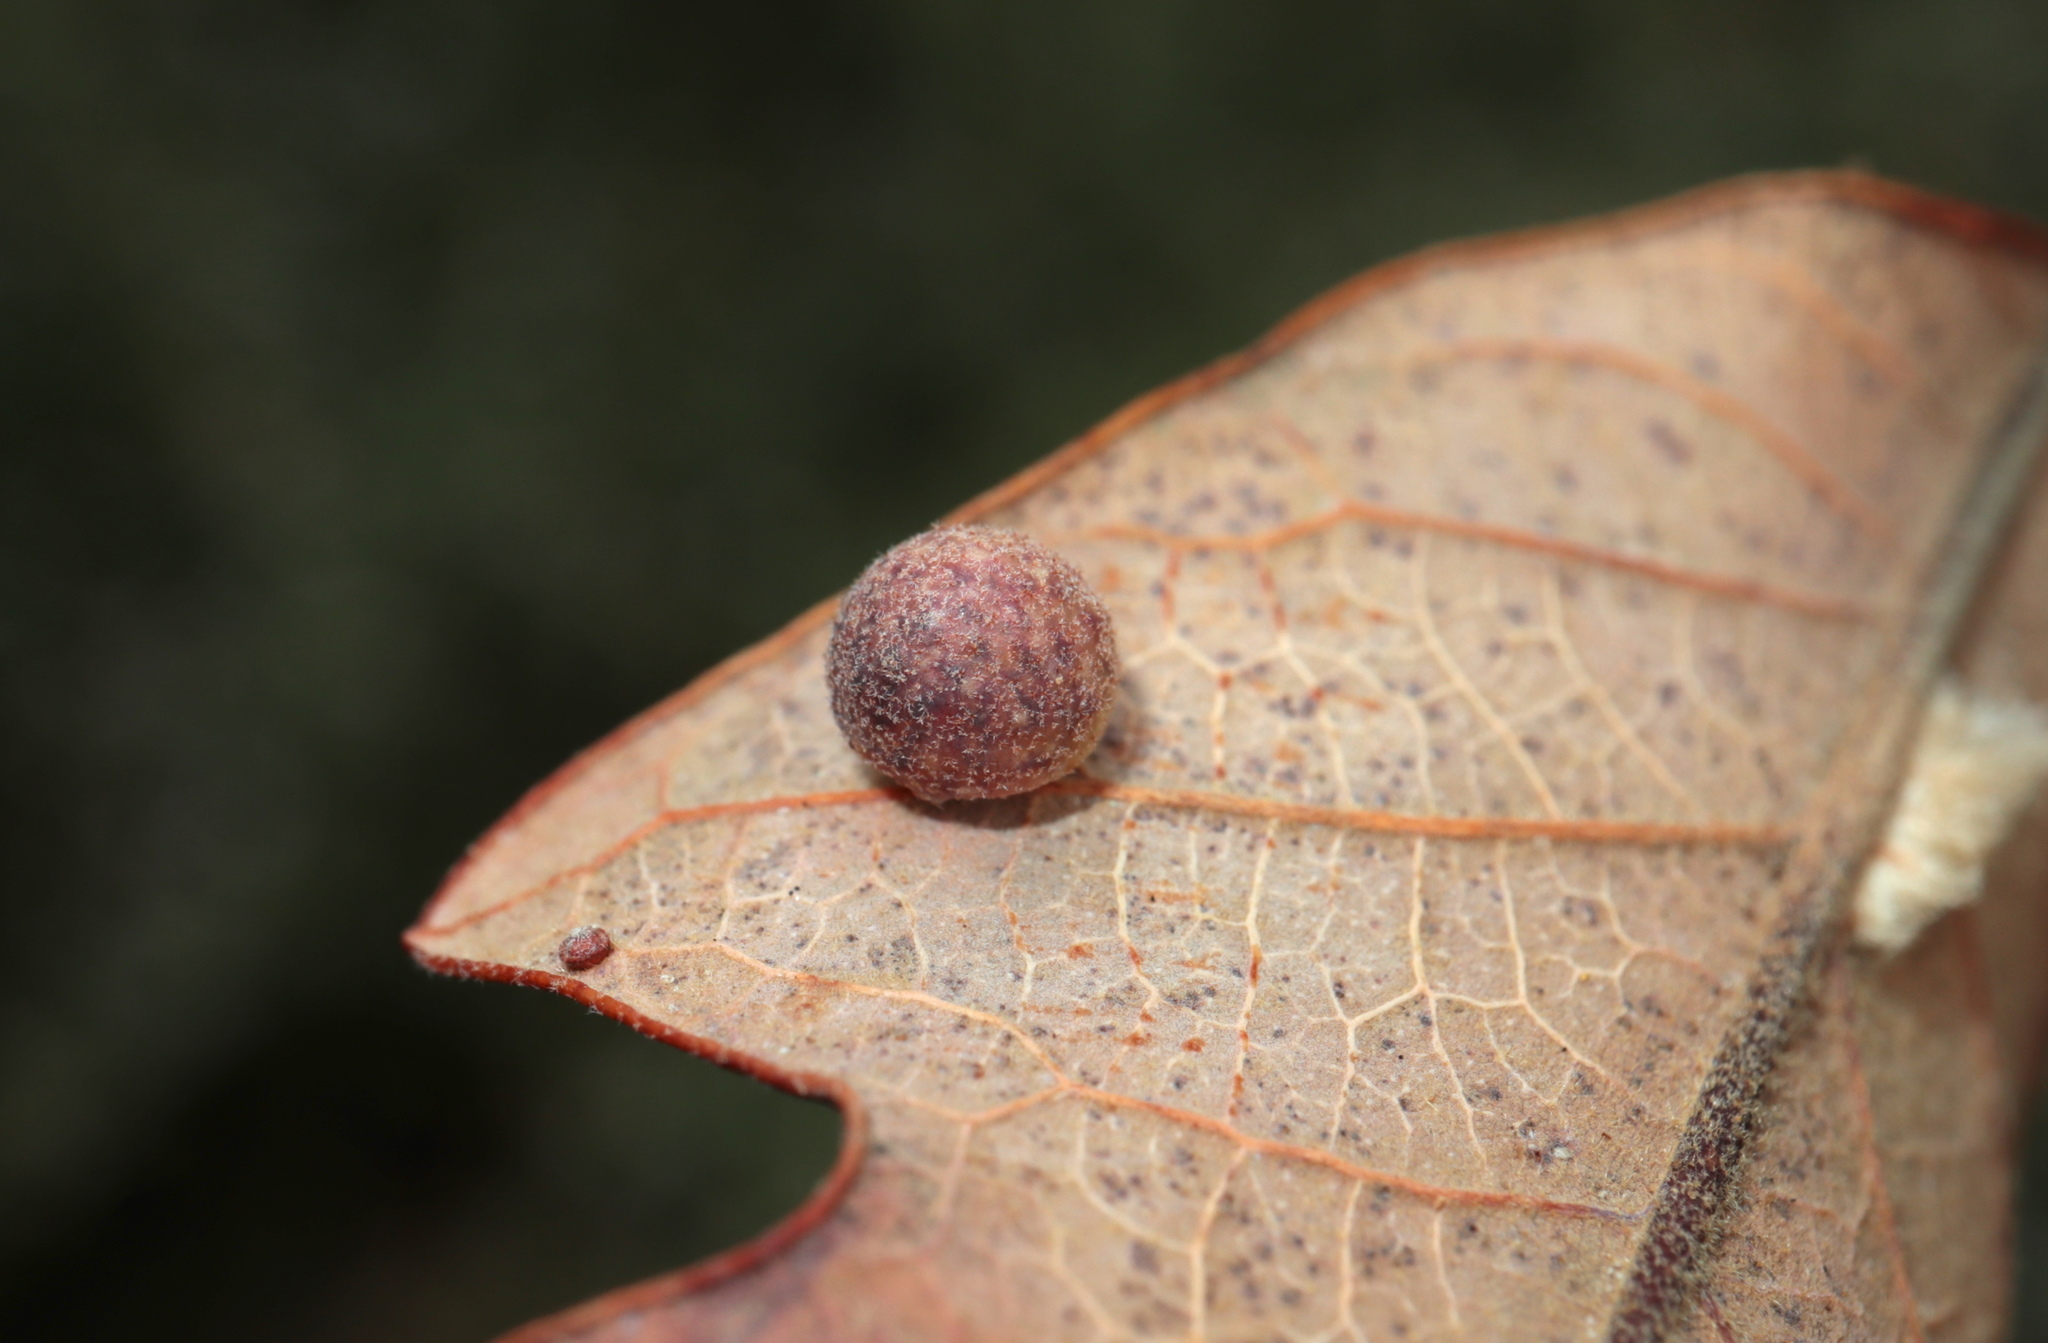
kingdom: Animalia
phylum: Arthropoda
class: Insecta
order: Hymenoptera
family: Cynipidae
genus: Atrusca
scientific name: Atrusca
